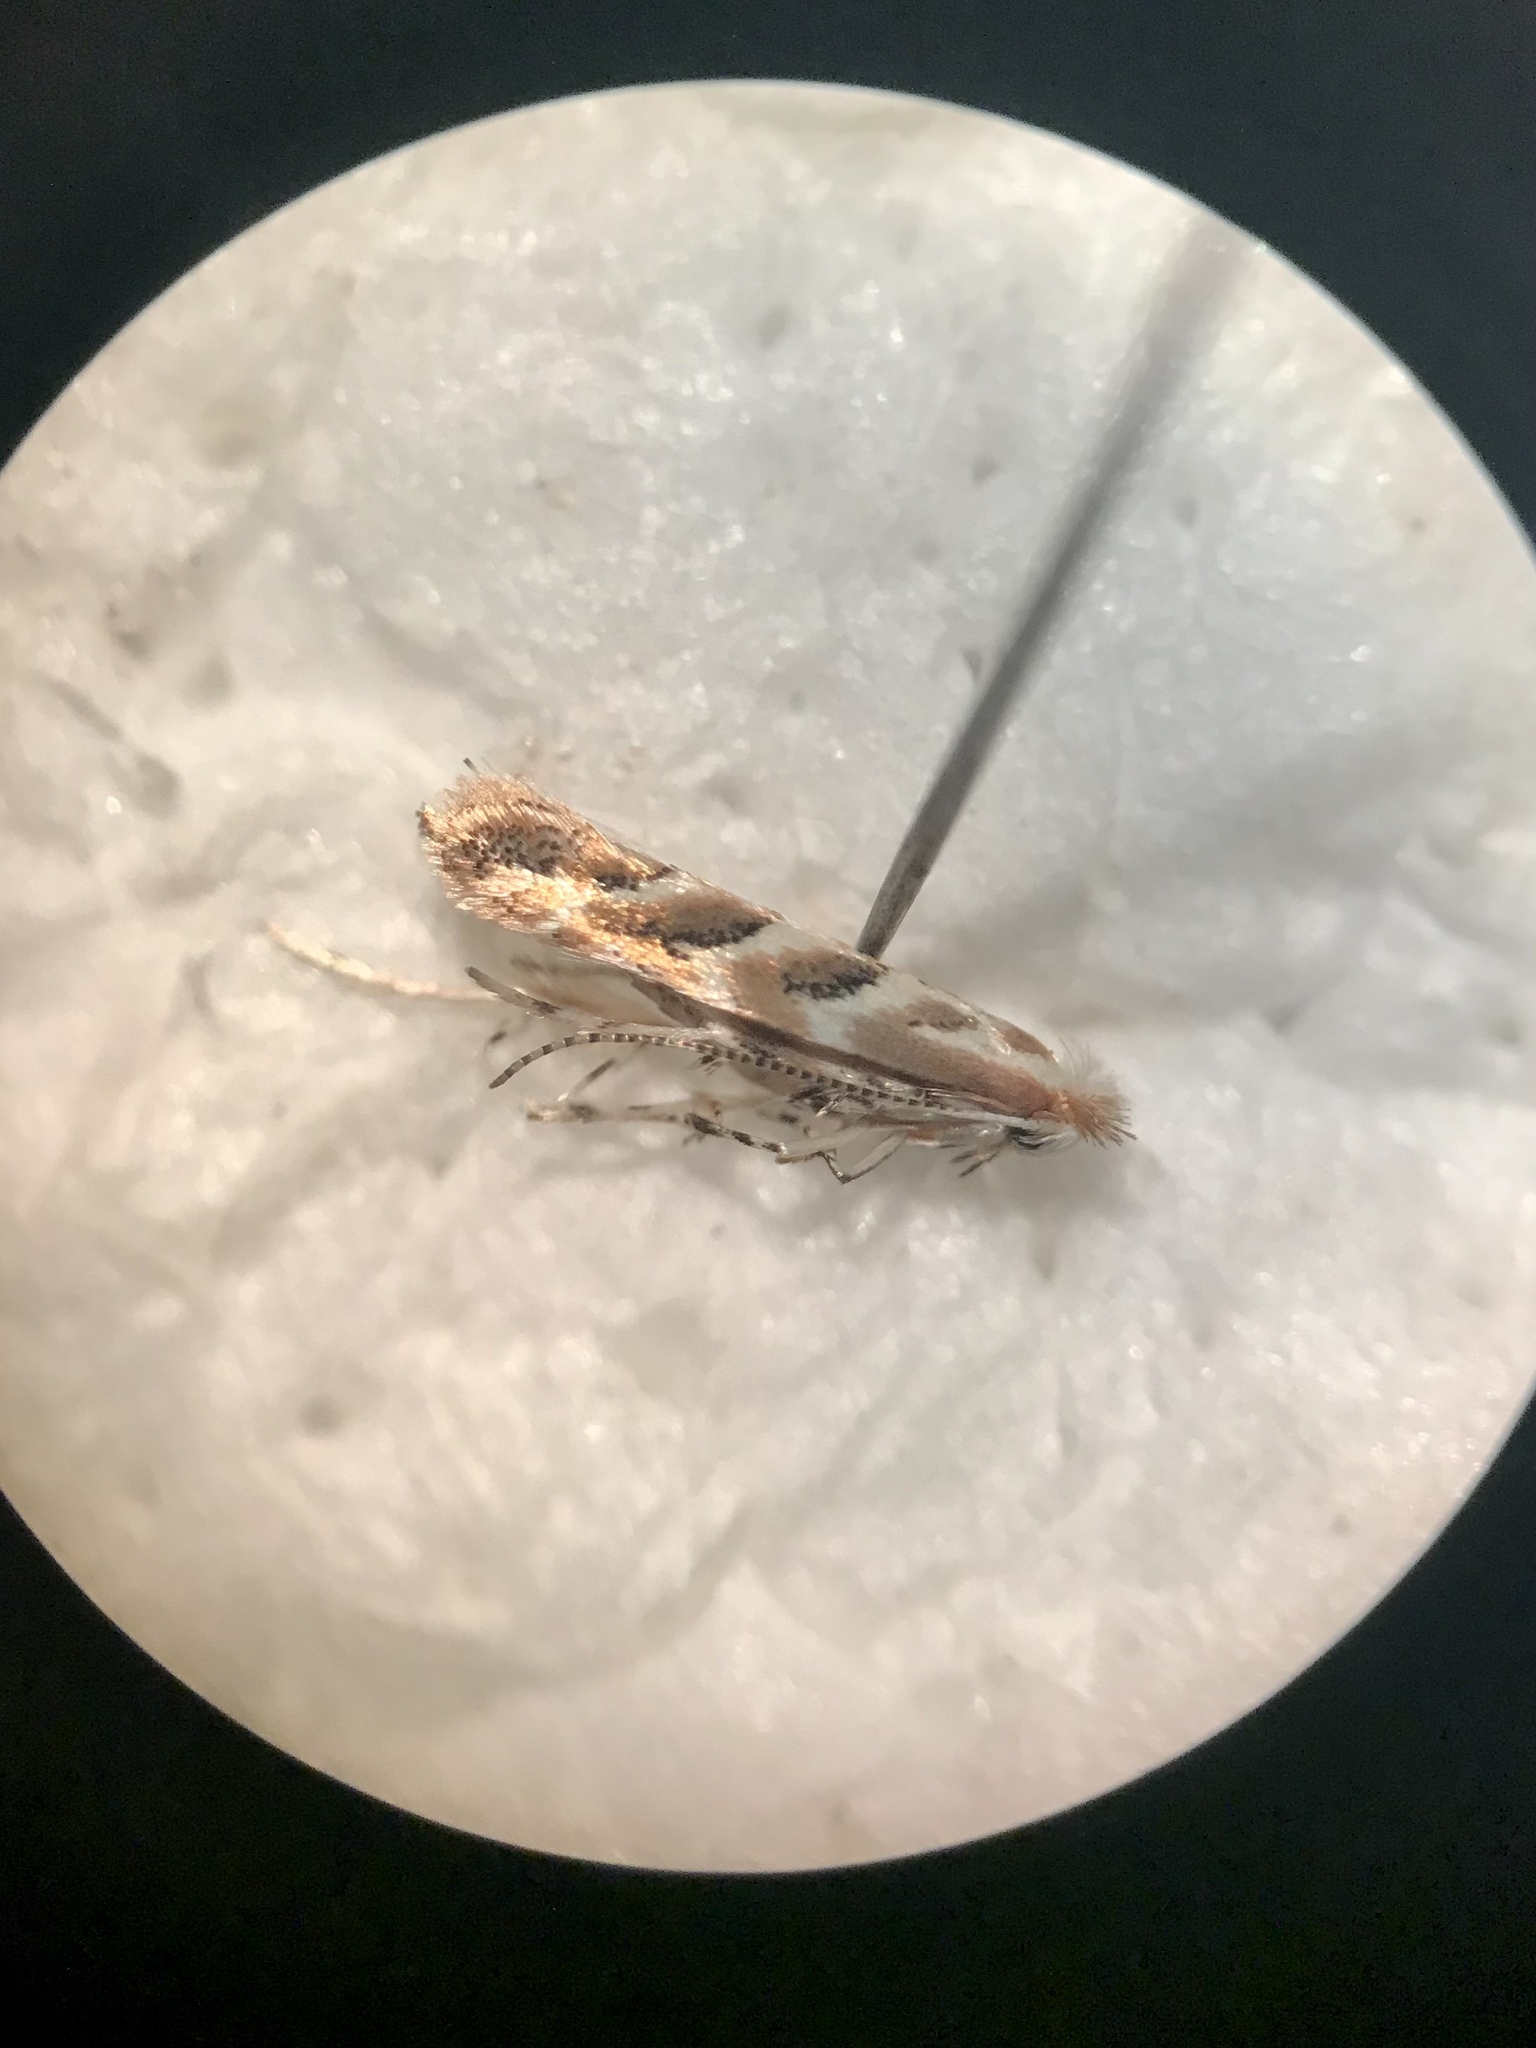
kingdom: Animalia
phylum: Arthropoda
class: Insecta
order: Lepidoptera
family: Gracillariidae
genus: Cameraria
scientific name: Cameraria macrocarpella
